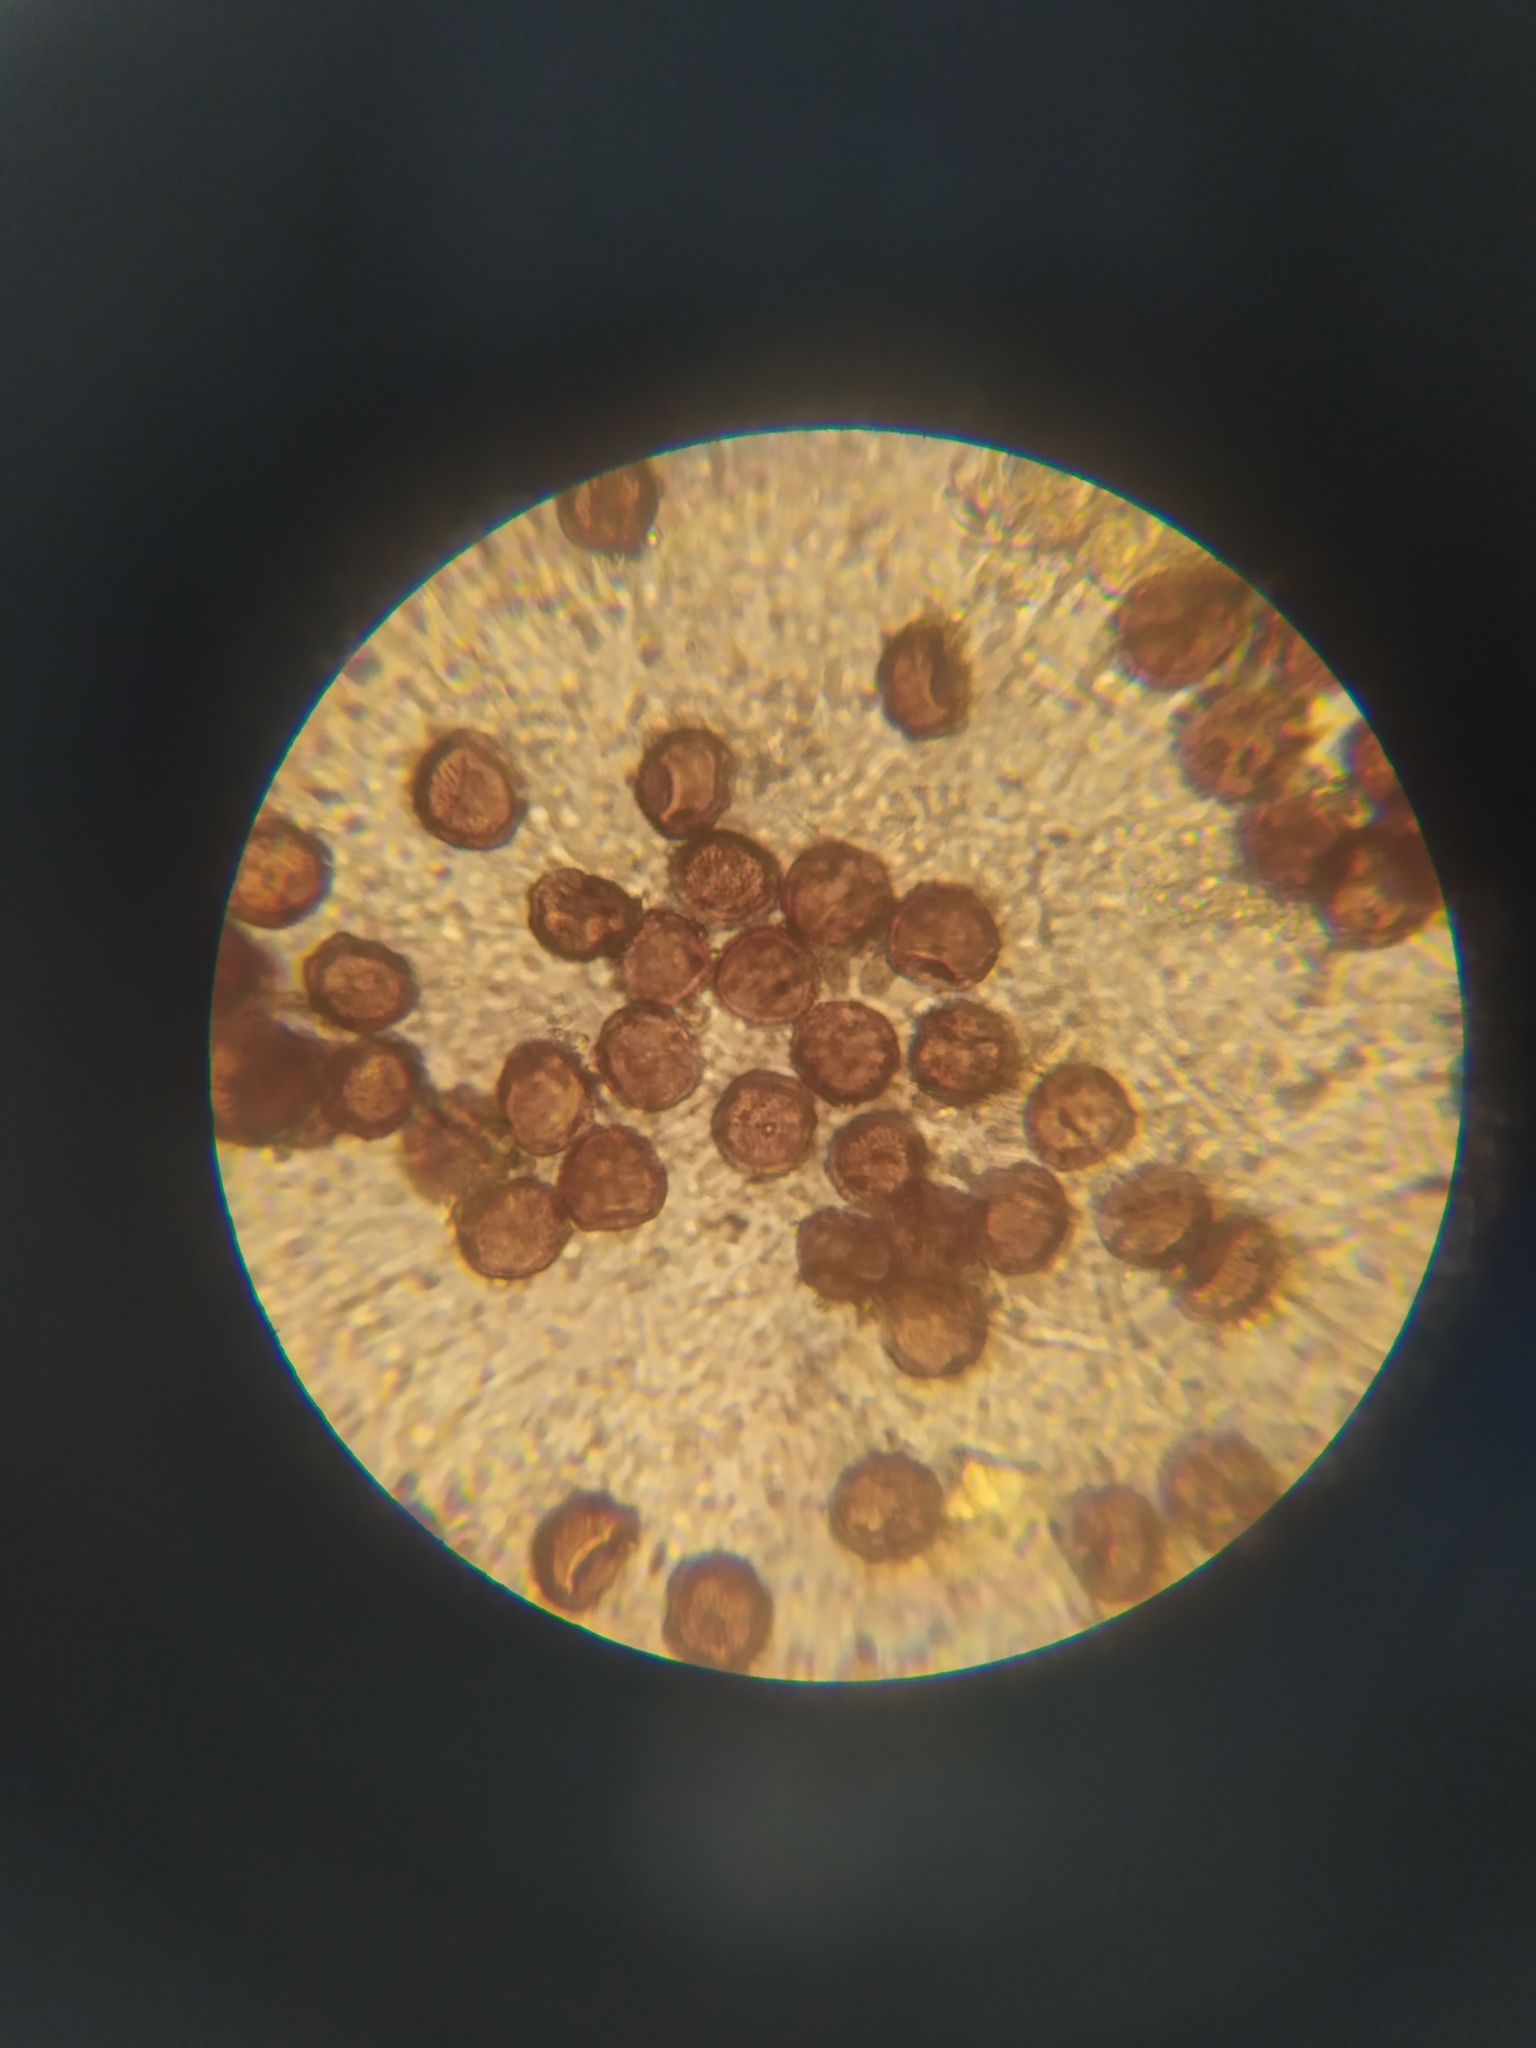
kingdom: Protozoa
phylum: Mycetozoa
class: Myxomycetes
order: Physarales
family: Physaraceae
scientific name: Physaraceae
